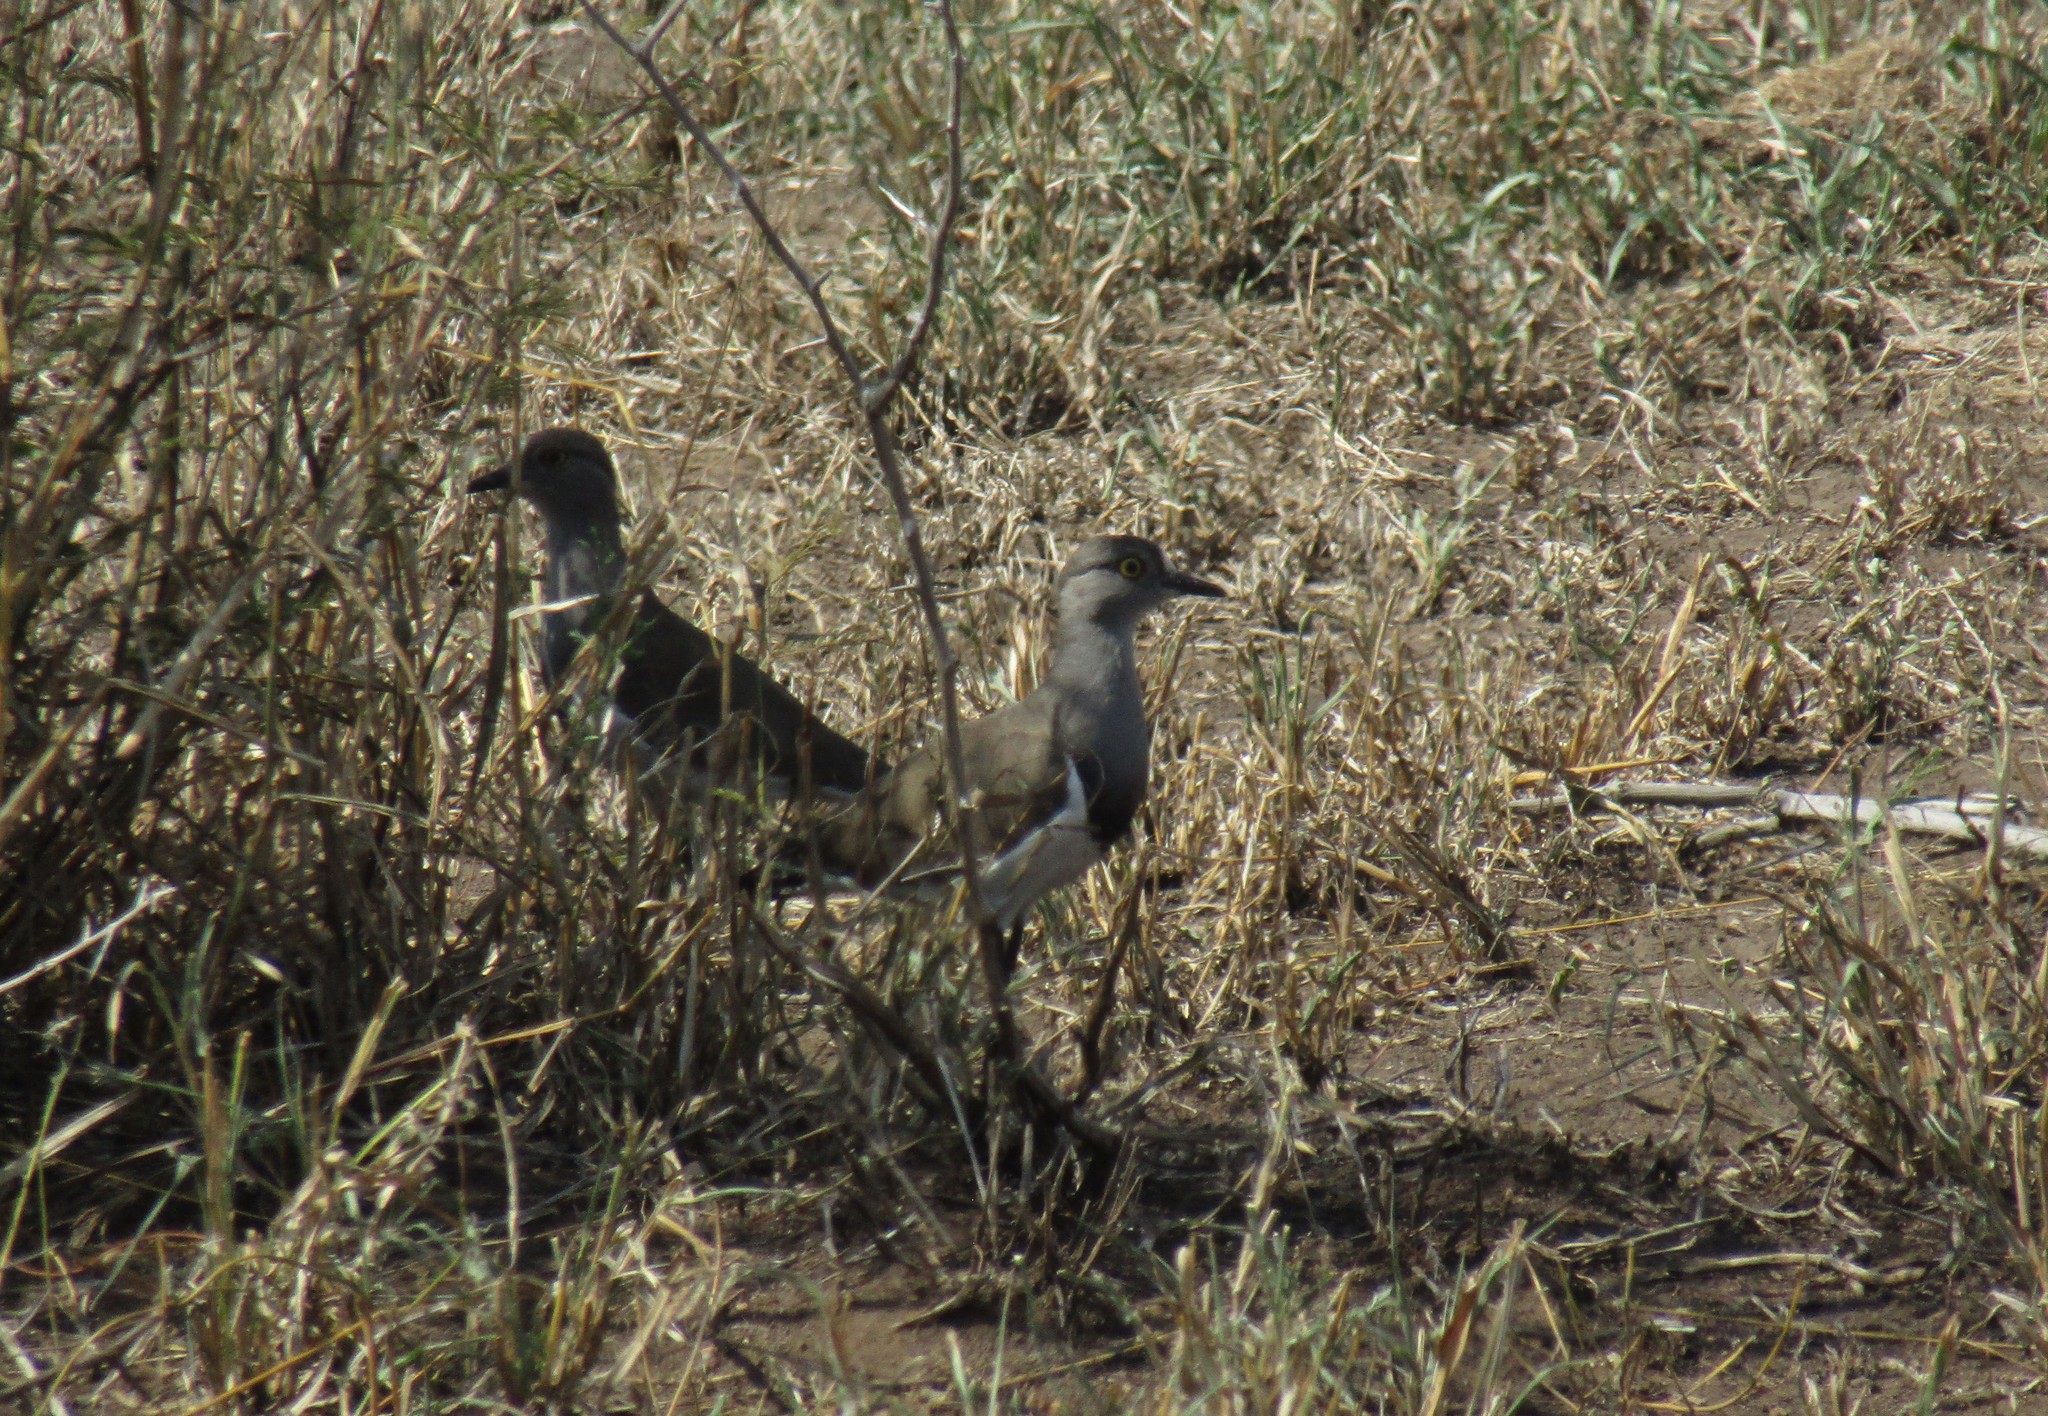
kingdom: Animalia
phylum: Chordata
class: Aves
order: Charadriiformes
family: Charadriidae
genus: Vanellus
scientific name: Vanellus lugubris
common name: Senegal lapwing
